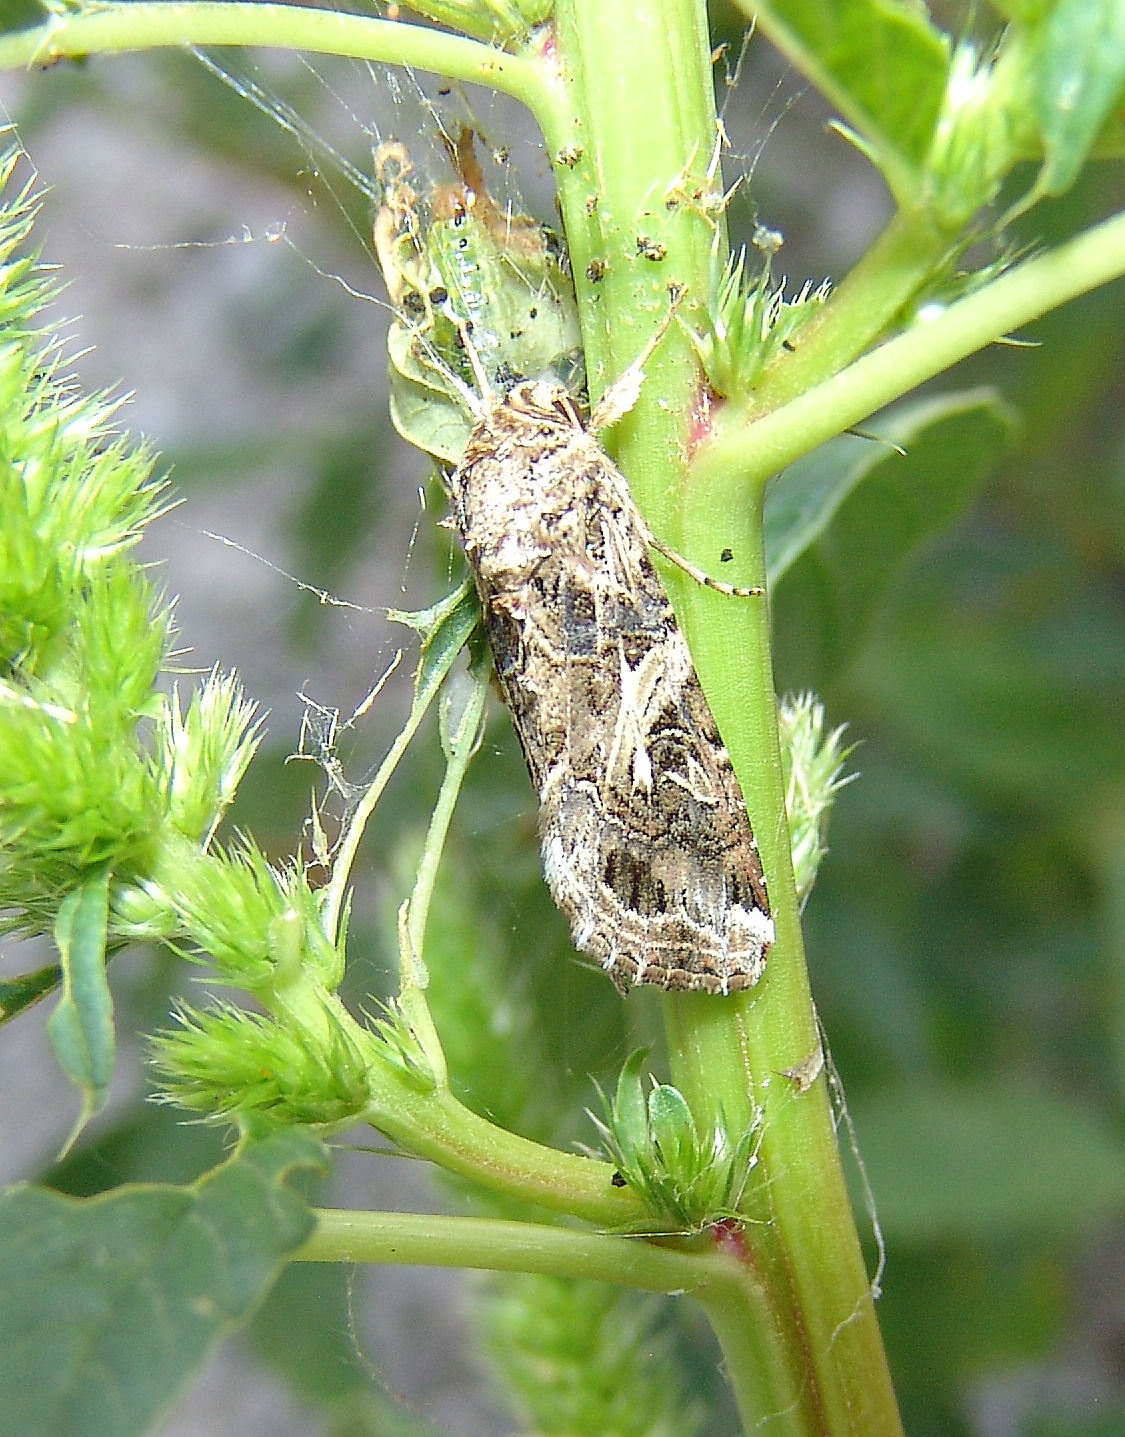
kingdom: Animalia
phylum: Arthropoda
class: Insecta
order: Lepidoptera
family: Noctuidae
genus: Spodoptera
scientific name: Spodoptera ornithogalli
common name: Yellow-striped armyworm
